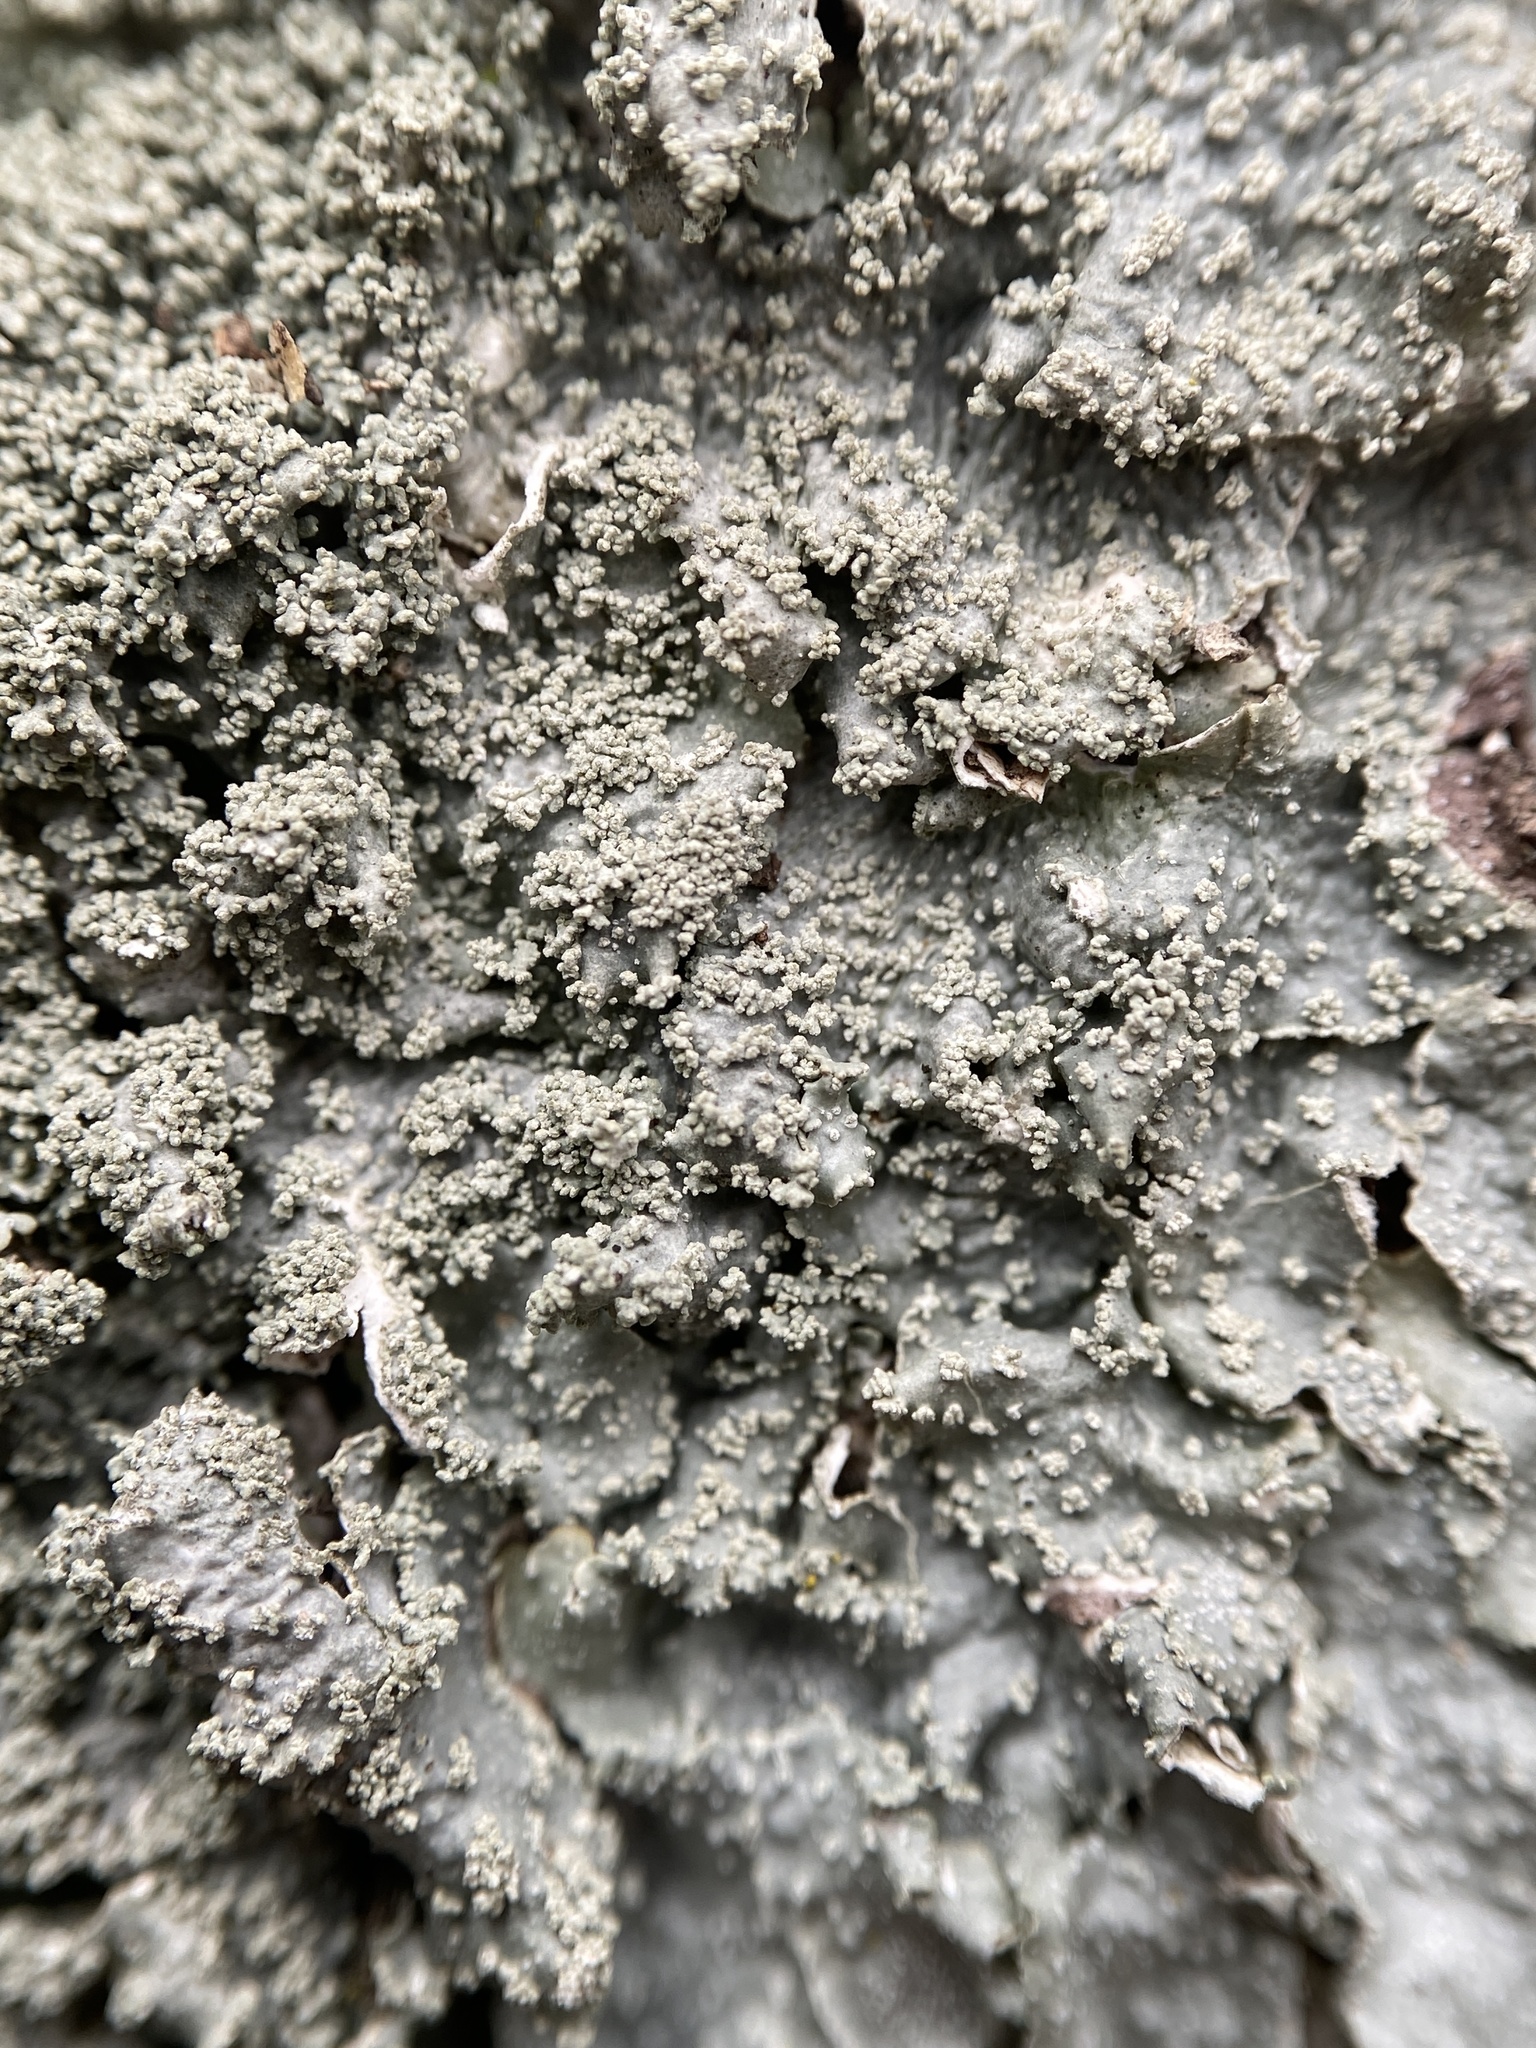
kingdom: Fungi
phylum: Ascomycota
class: Lecanoromycetes
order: Lecanorales
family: Parmeliaceae
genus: Punctelia
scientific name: Punctelia missouriensis
